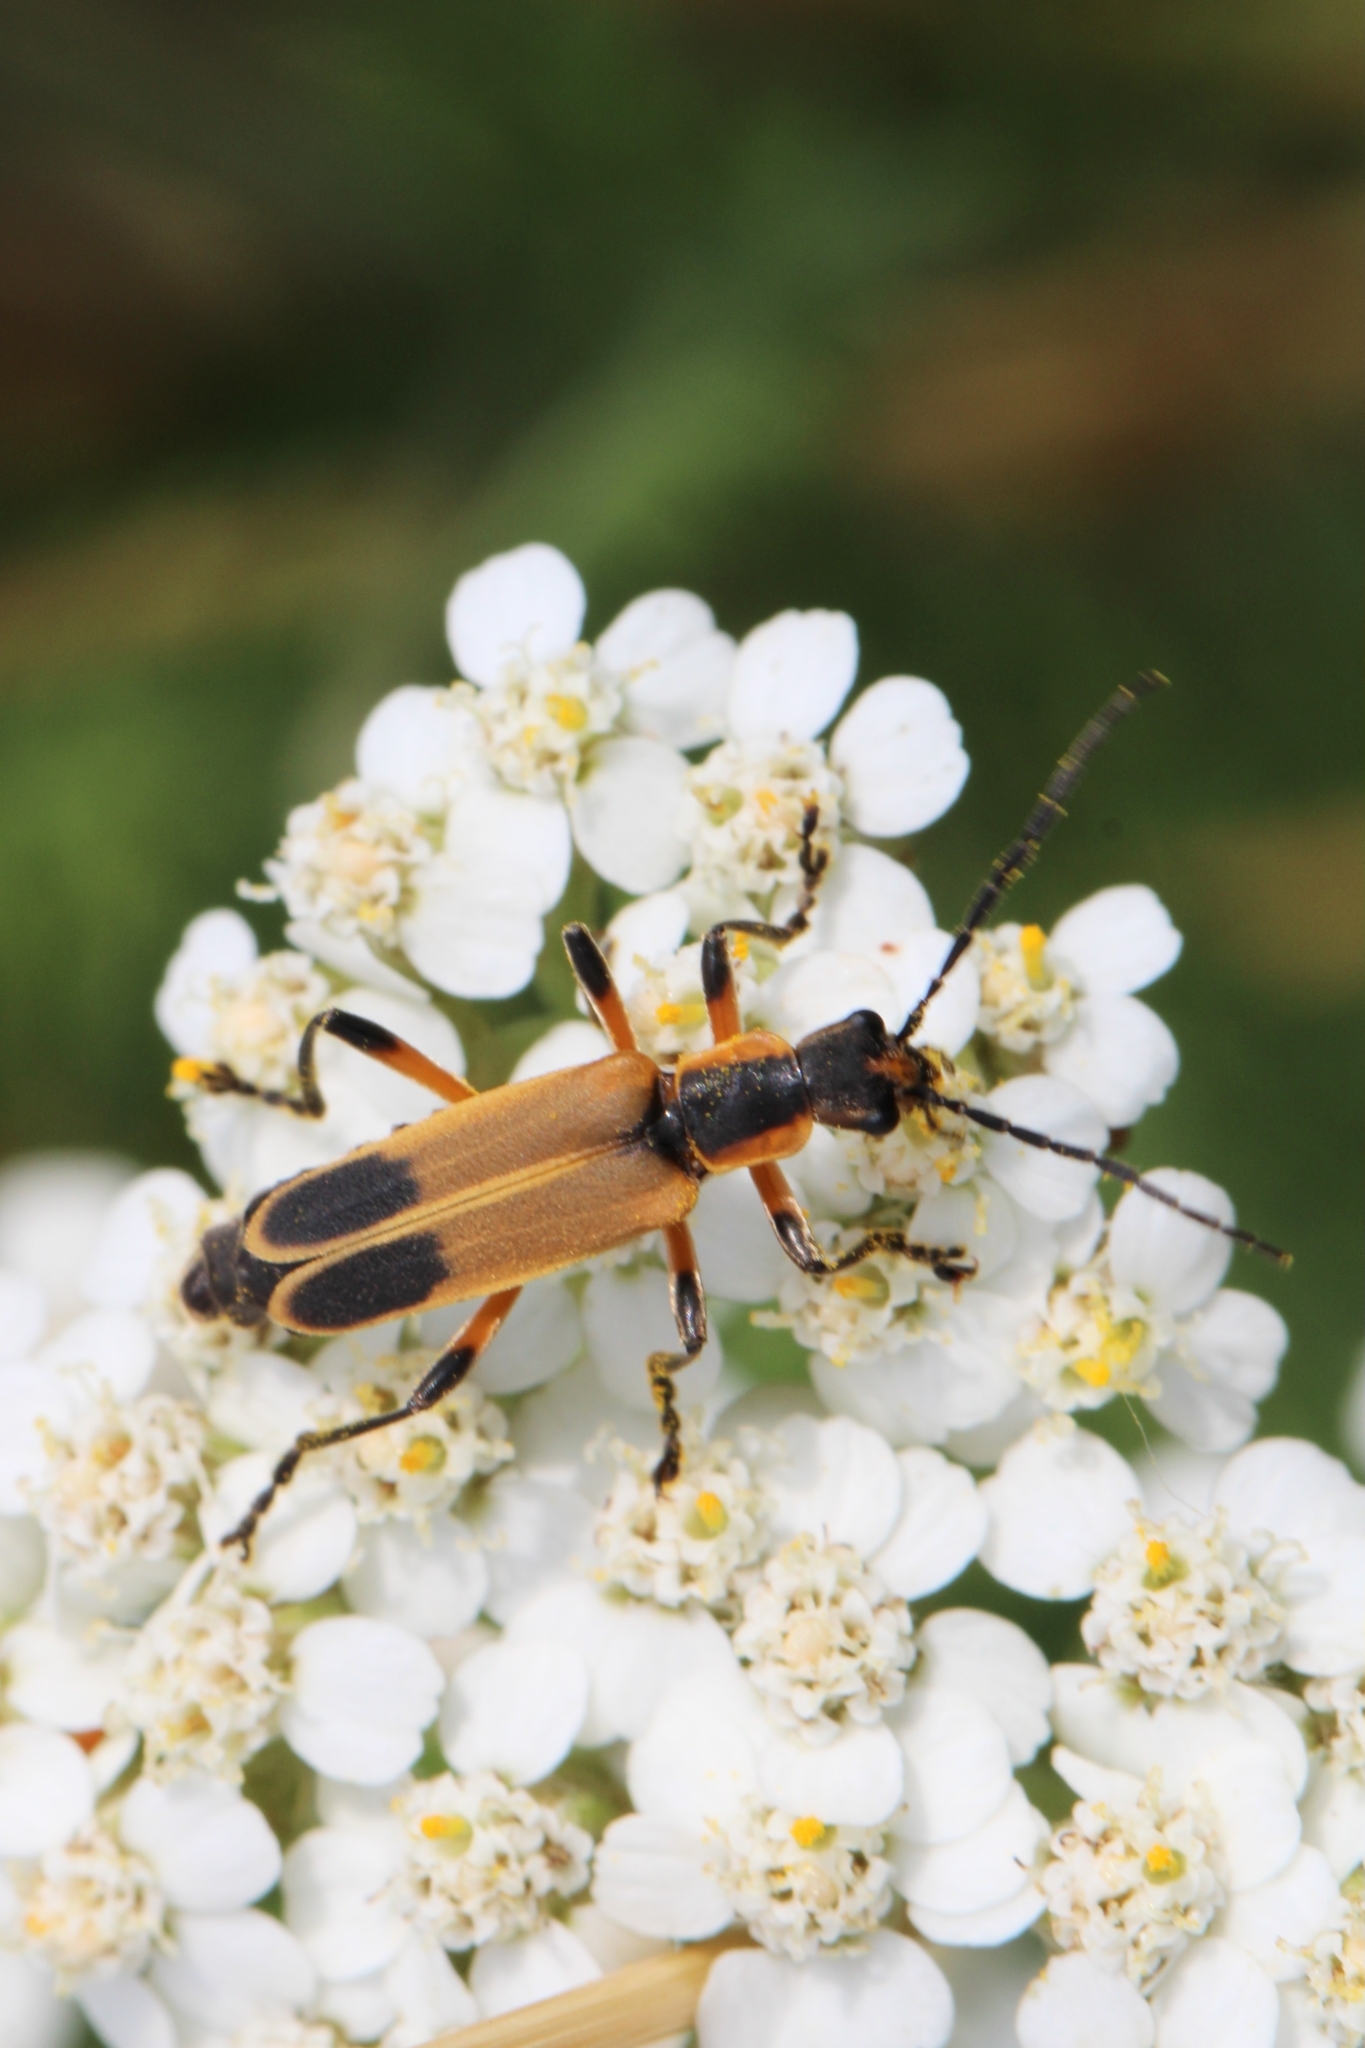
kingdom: Animalia
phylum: Arthropoda
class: Insecta
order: Coleoptera
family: Cantharidae
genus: Chauliognathus
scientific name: Chauliognathus marginatus
